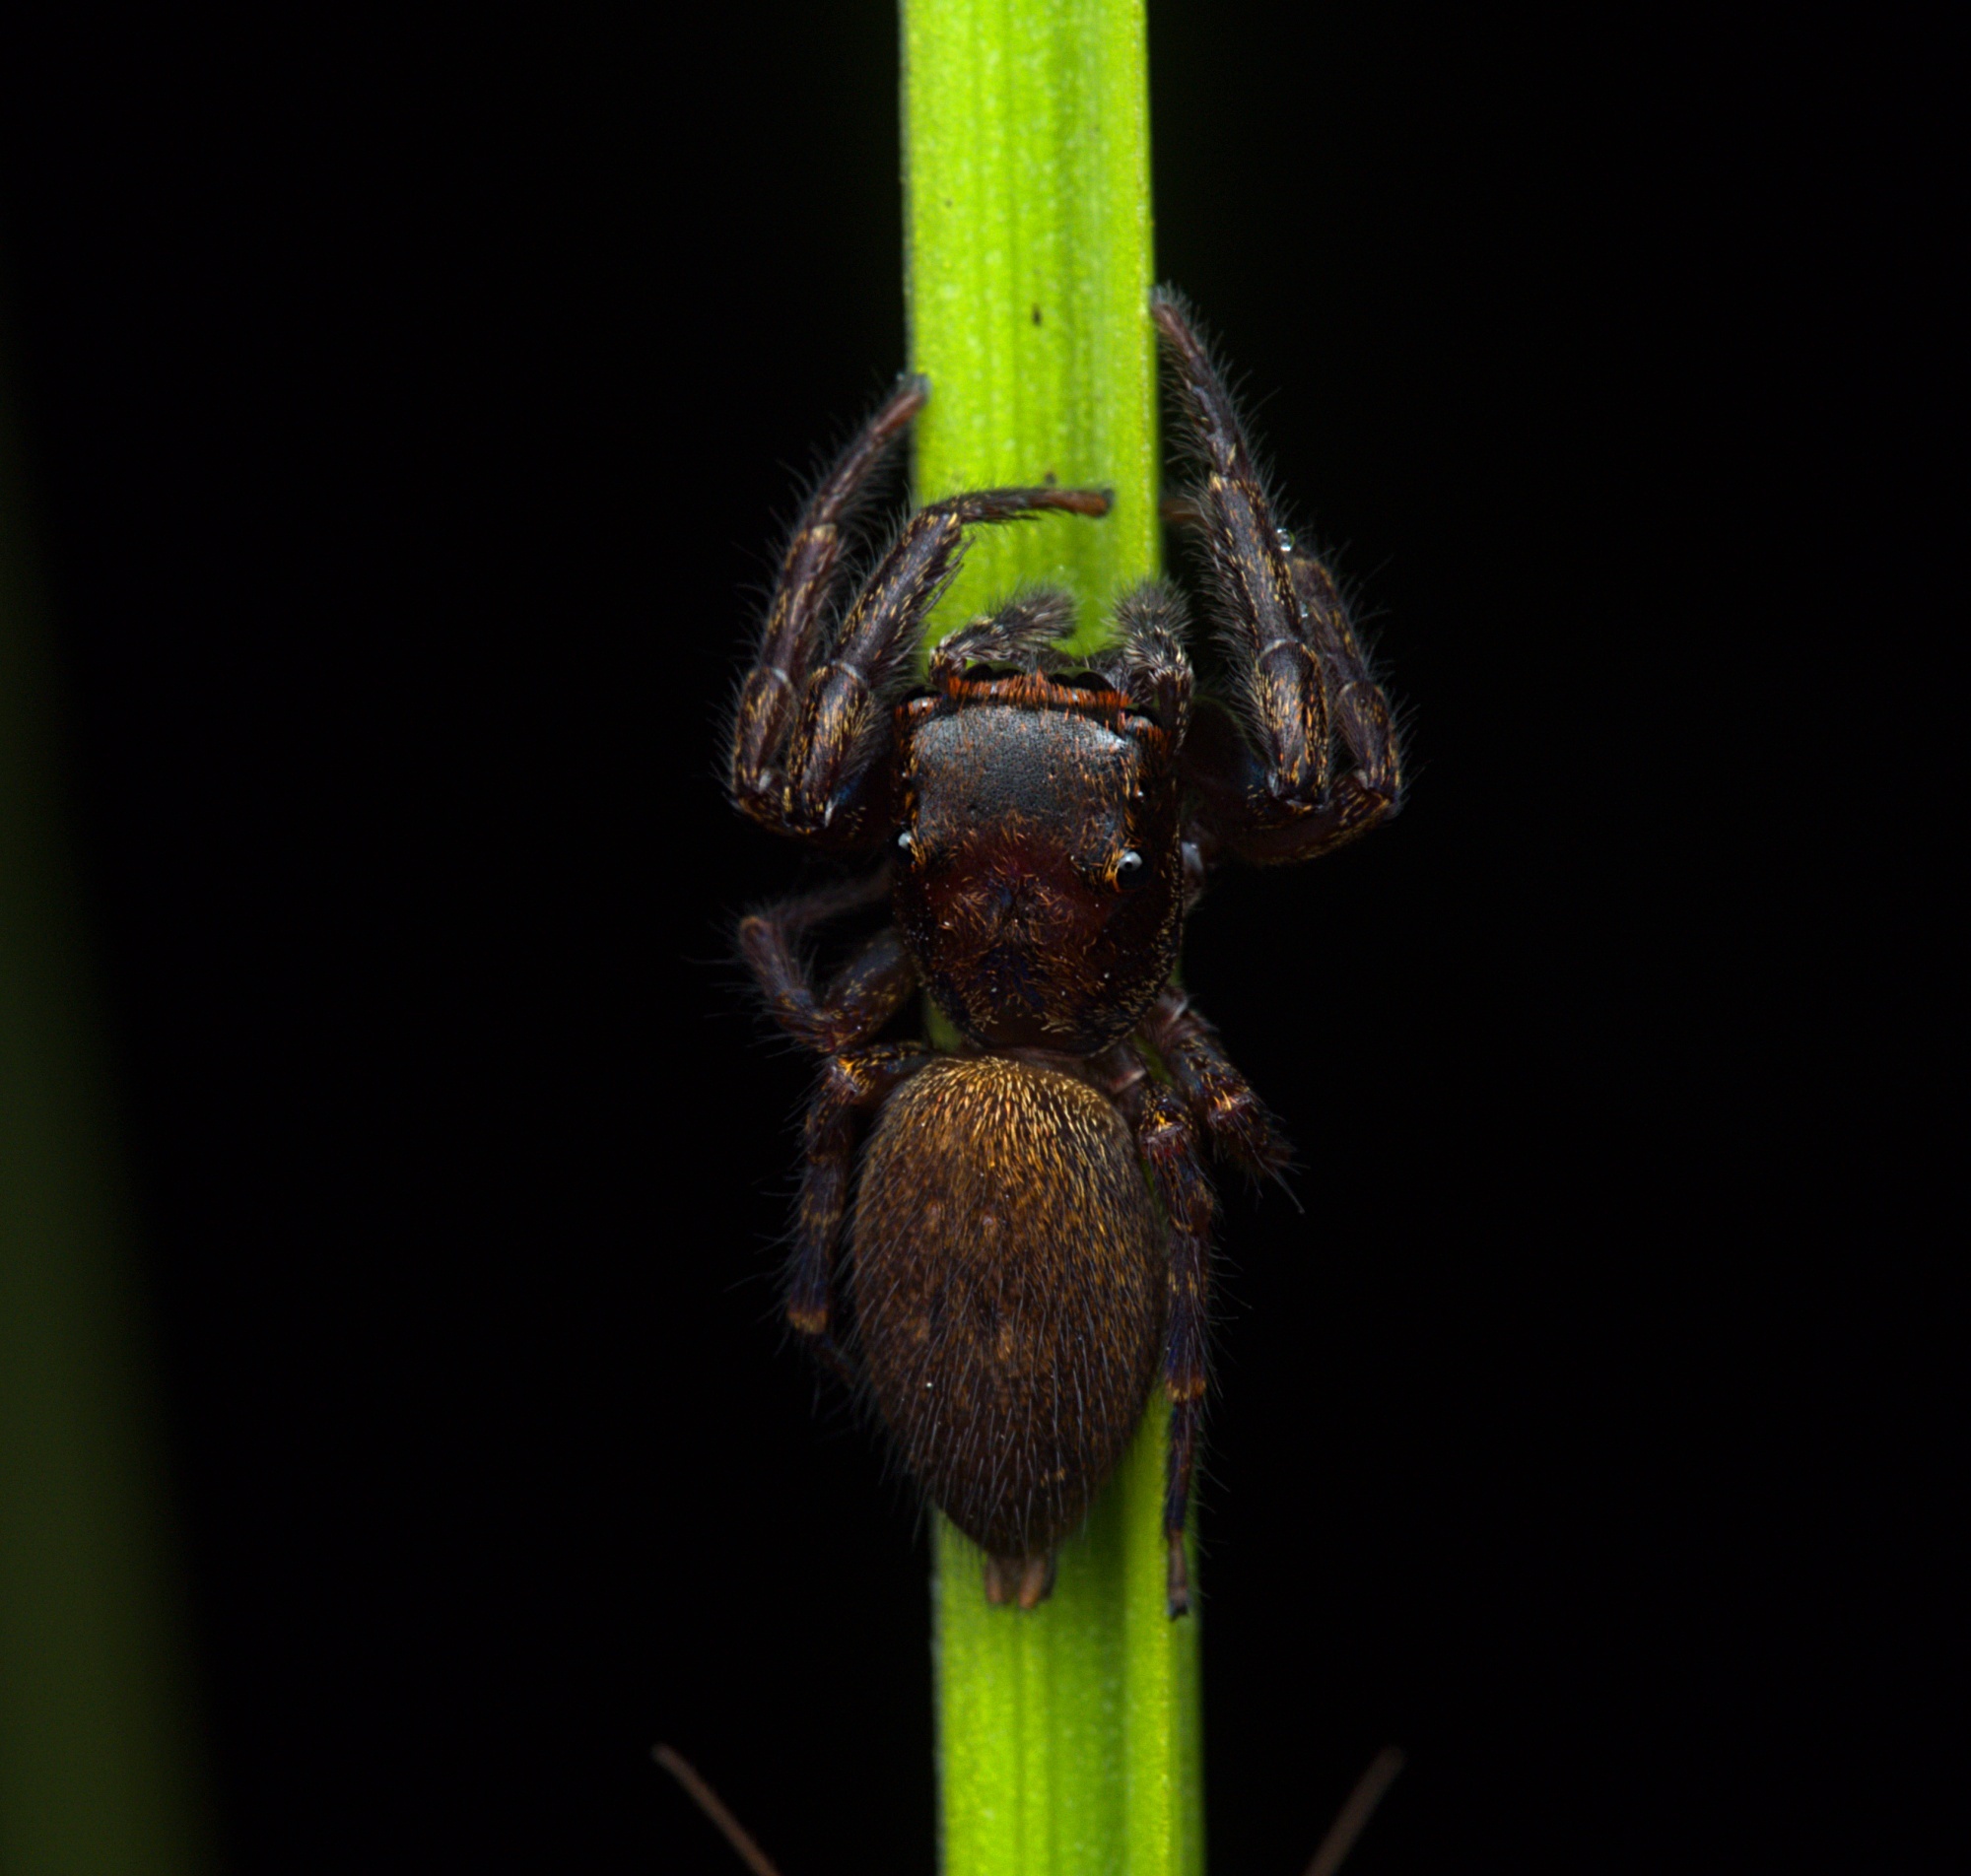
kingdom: Animalia
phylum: Arthropoda
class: Arachnida
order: Araneae
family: Salticidae
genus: Trite
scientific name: Trite auricoma
